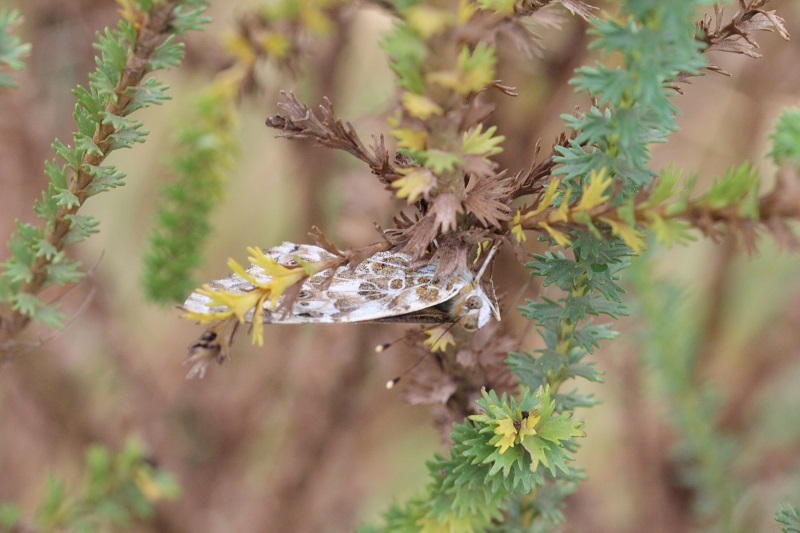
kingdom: Animalia
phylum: Arthropoda
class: Insecta
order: Lepidoptera
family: Nymphalidae
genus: Vanessa
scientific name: Vanessa cardui
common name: Painted lady
